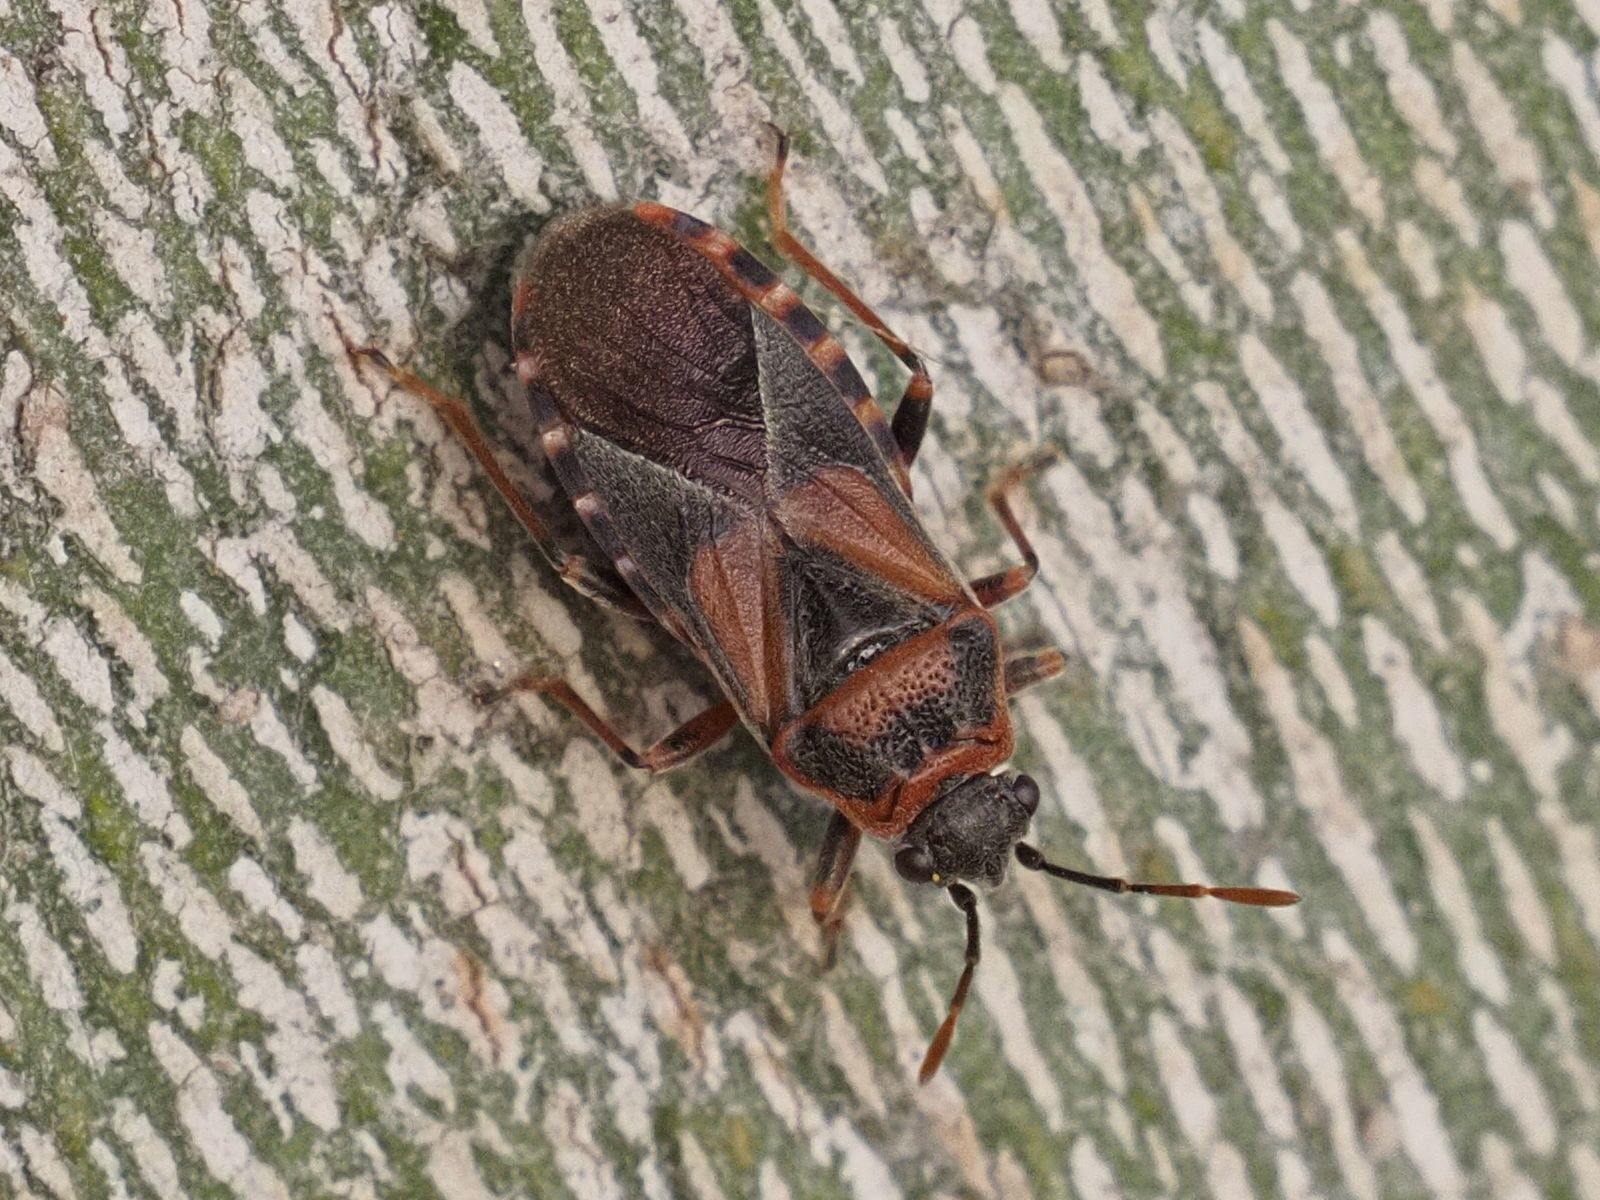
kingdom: Animalia
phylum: Arthropoda
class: Insecta
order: Hemiptera
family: Lygaeidae
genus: Arocatus
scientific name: Arocatus melanocephalus
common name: Lygaeid bug
